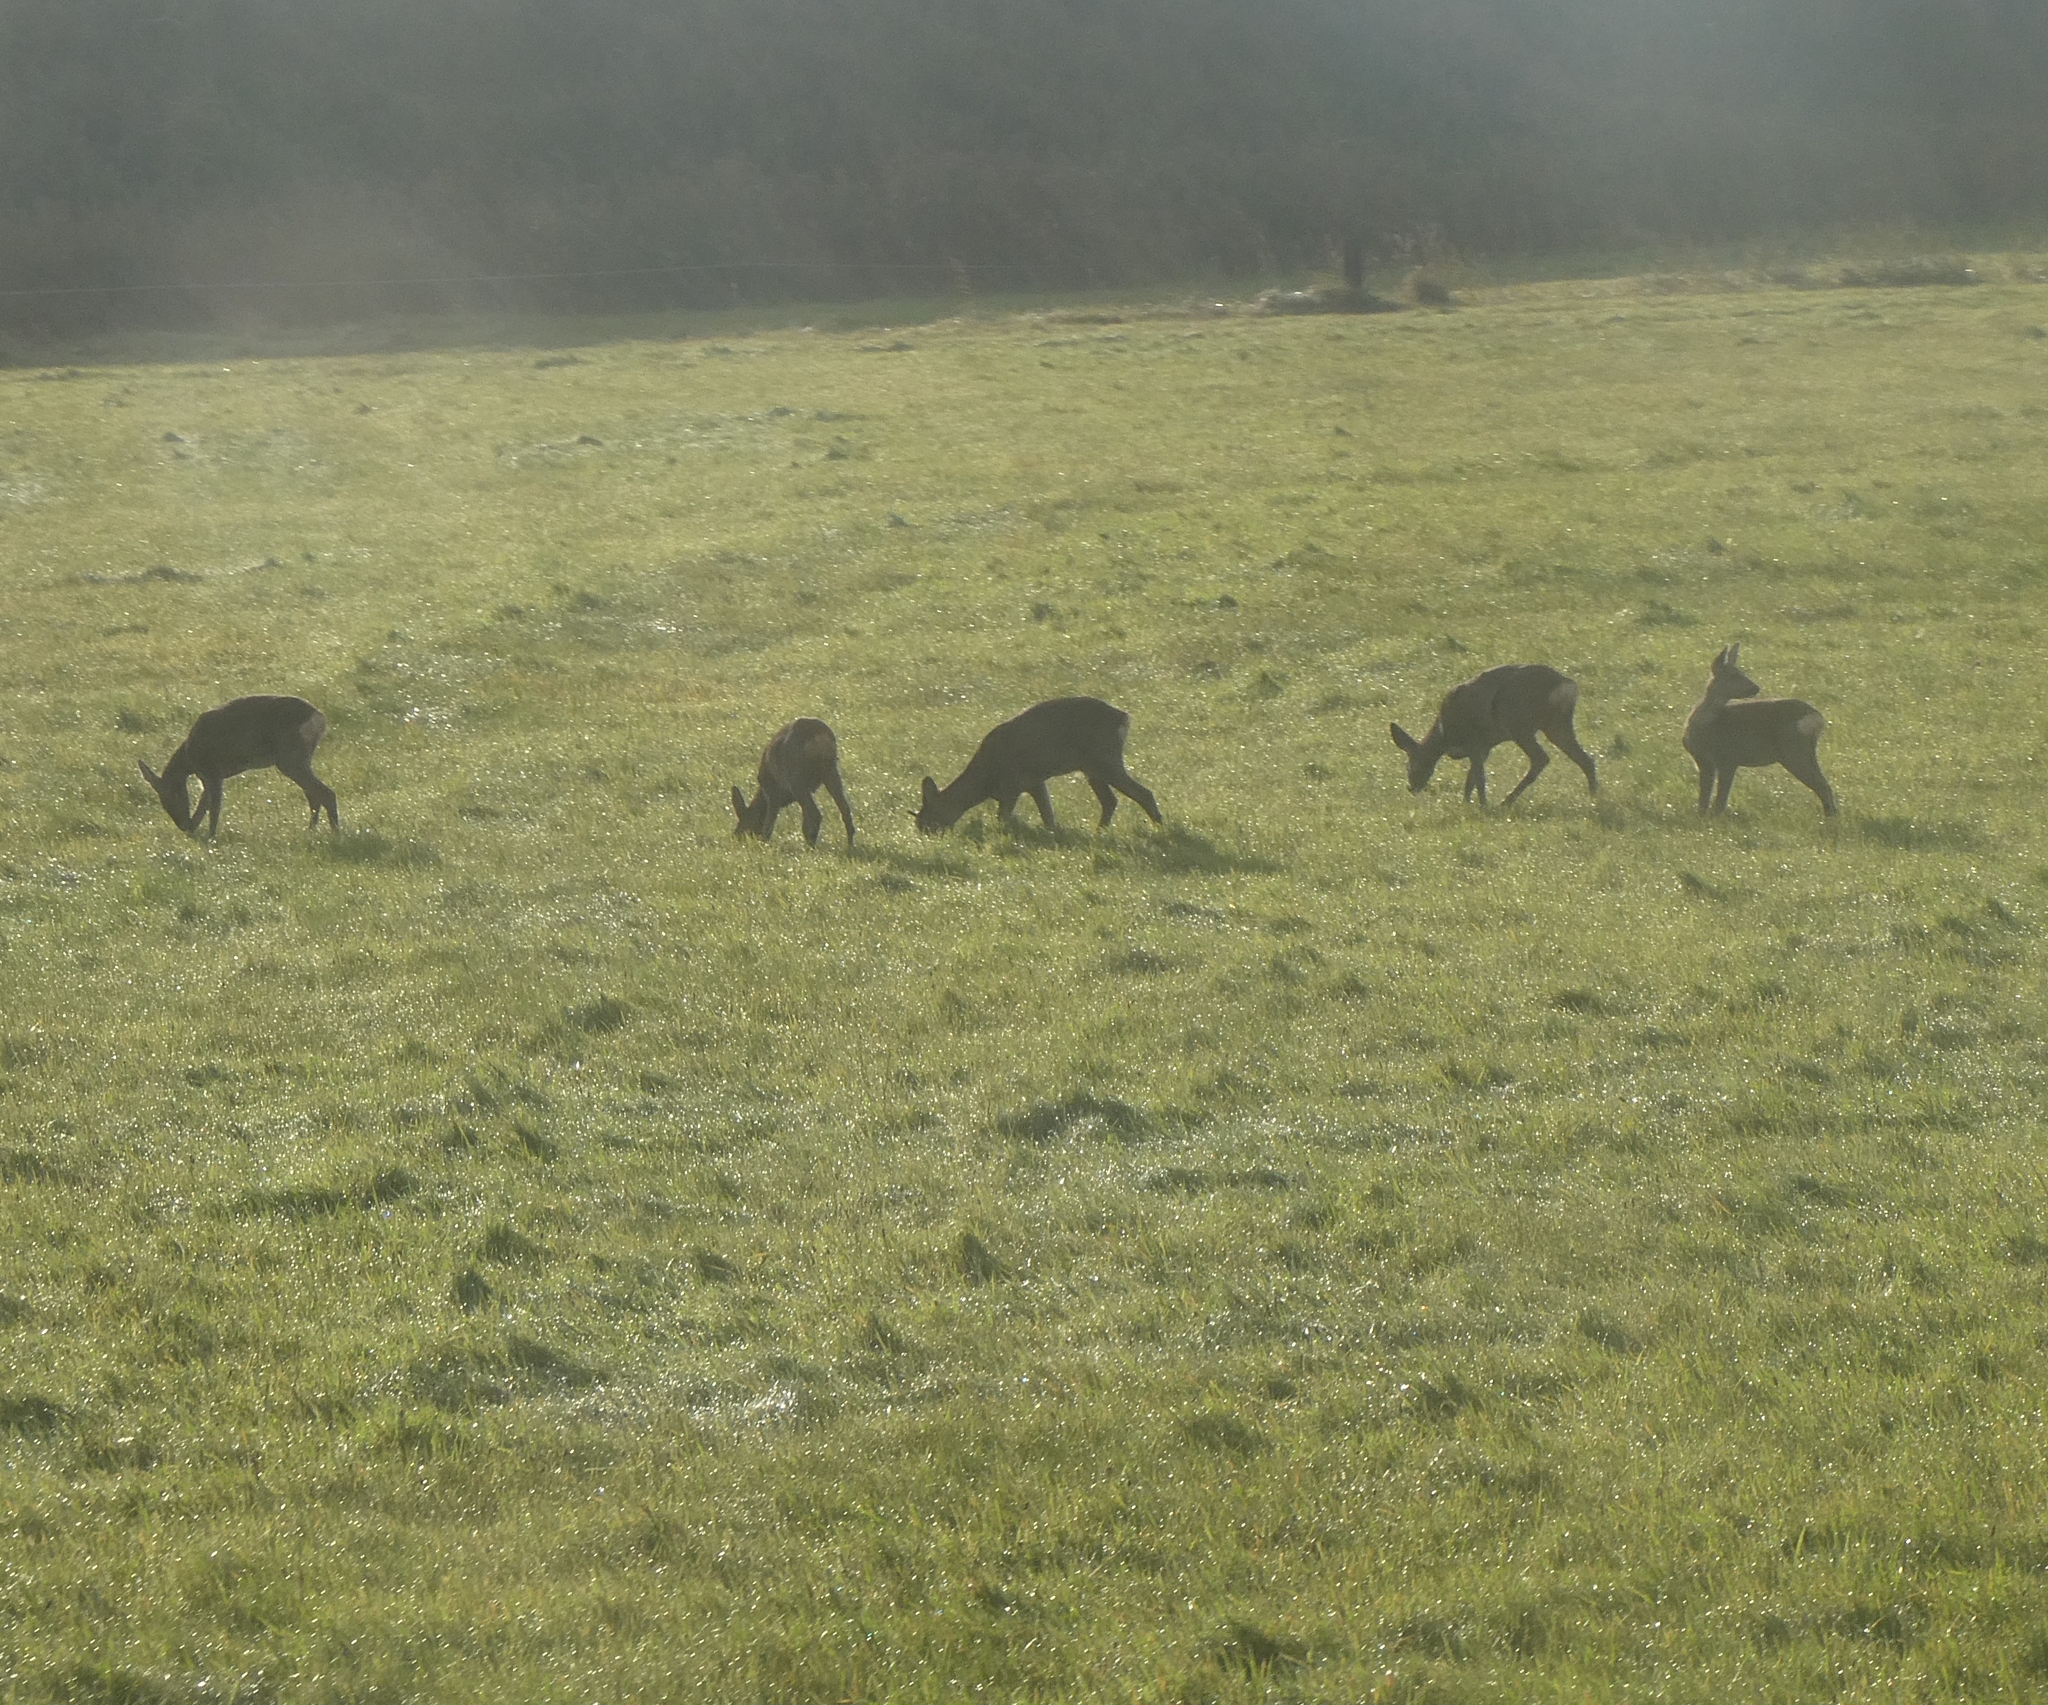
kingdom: Animalia
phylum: Chordata
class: Mammalia
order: Artiodactyla
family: Cervidae
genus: Capreolus
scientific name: Capreolus capreolus
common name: Western roe deer
